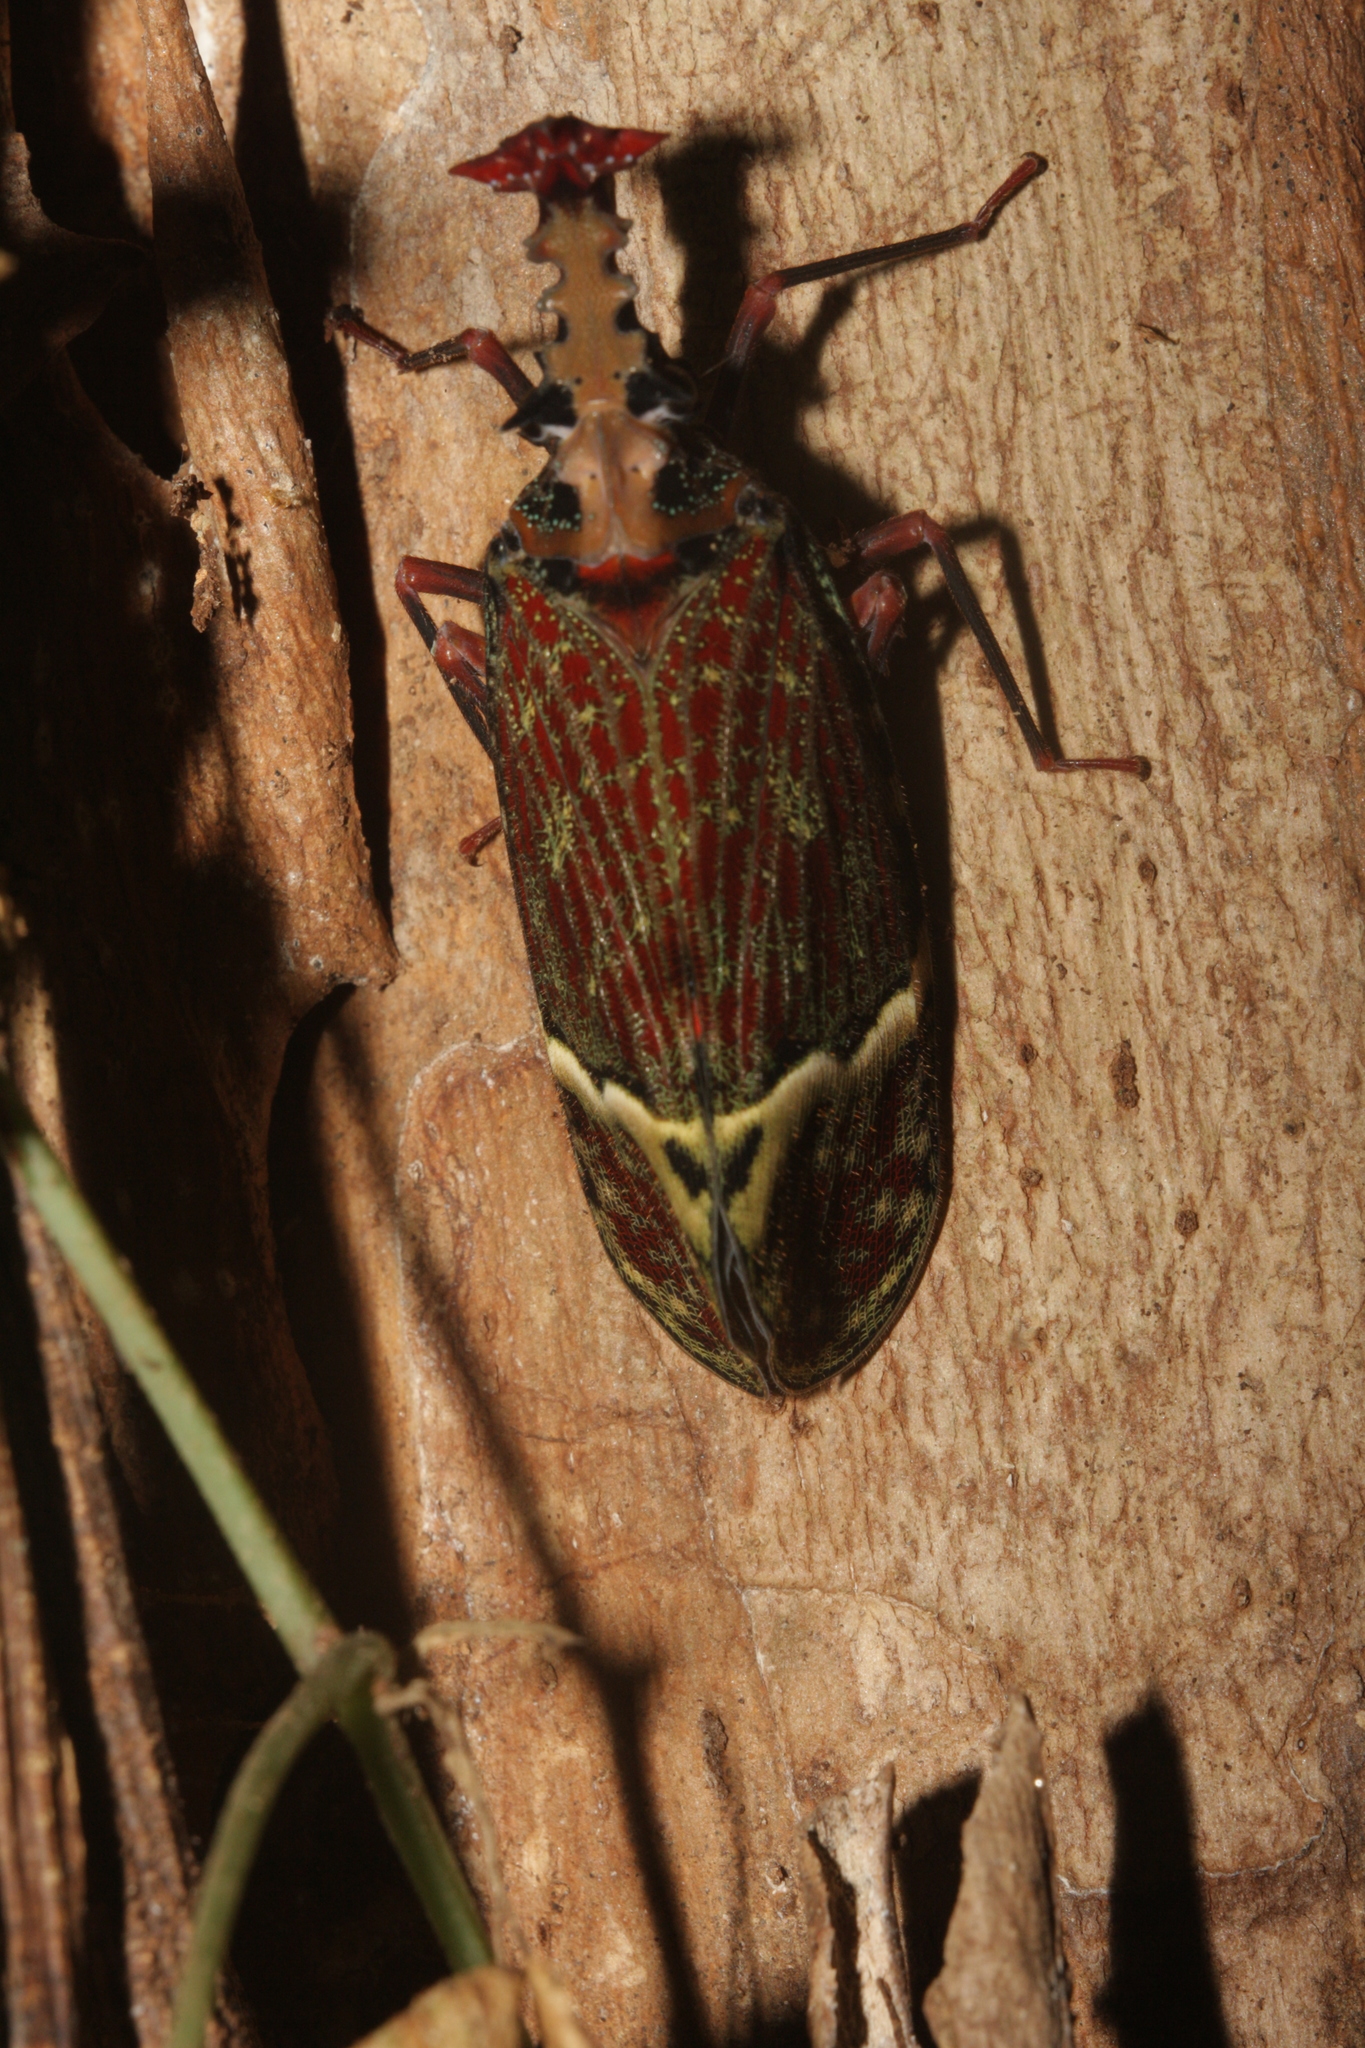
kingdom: Animalia
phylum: Arthropoda
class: Insecta
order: Hemiptera
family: Fulgoridae
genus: Phrictus
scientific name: Phrictus quinquepartitus
